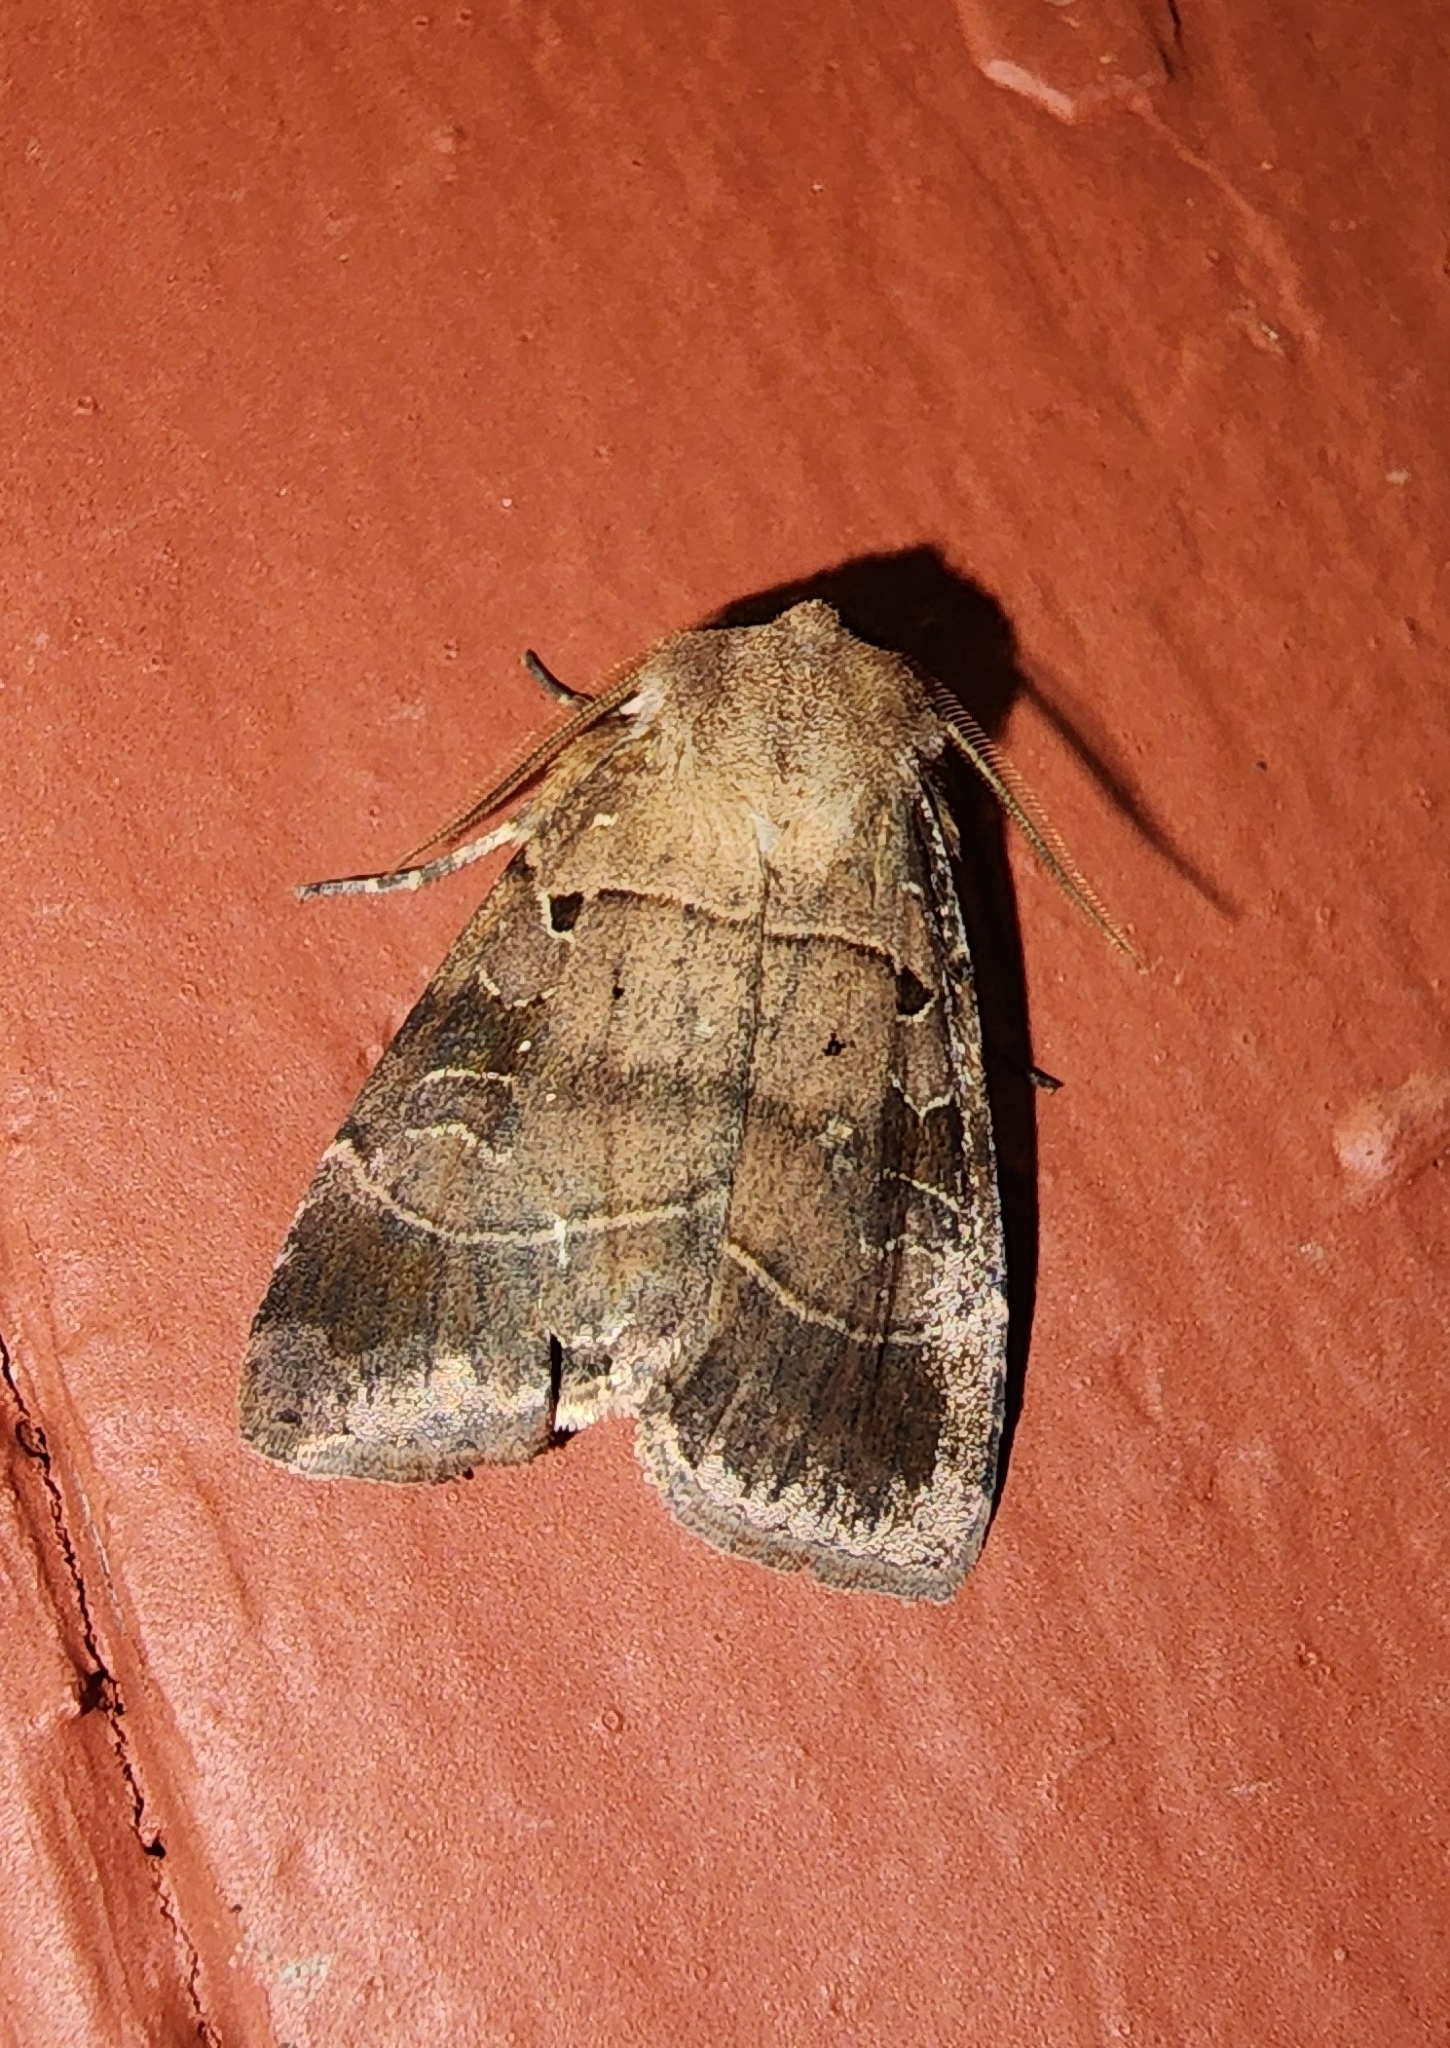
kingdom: Animalia
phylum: Arthropoda
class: Insecta
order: Lepidoptera
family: Noctuidae
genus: Agnorisma
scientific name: Agnorisma badinodis
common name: Pale-banded dart
